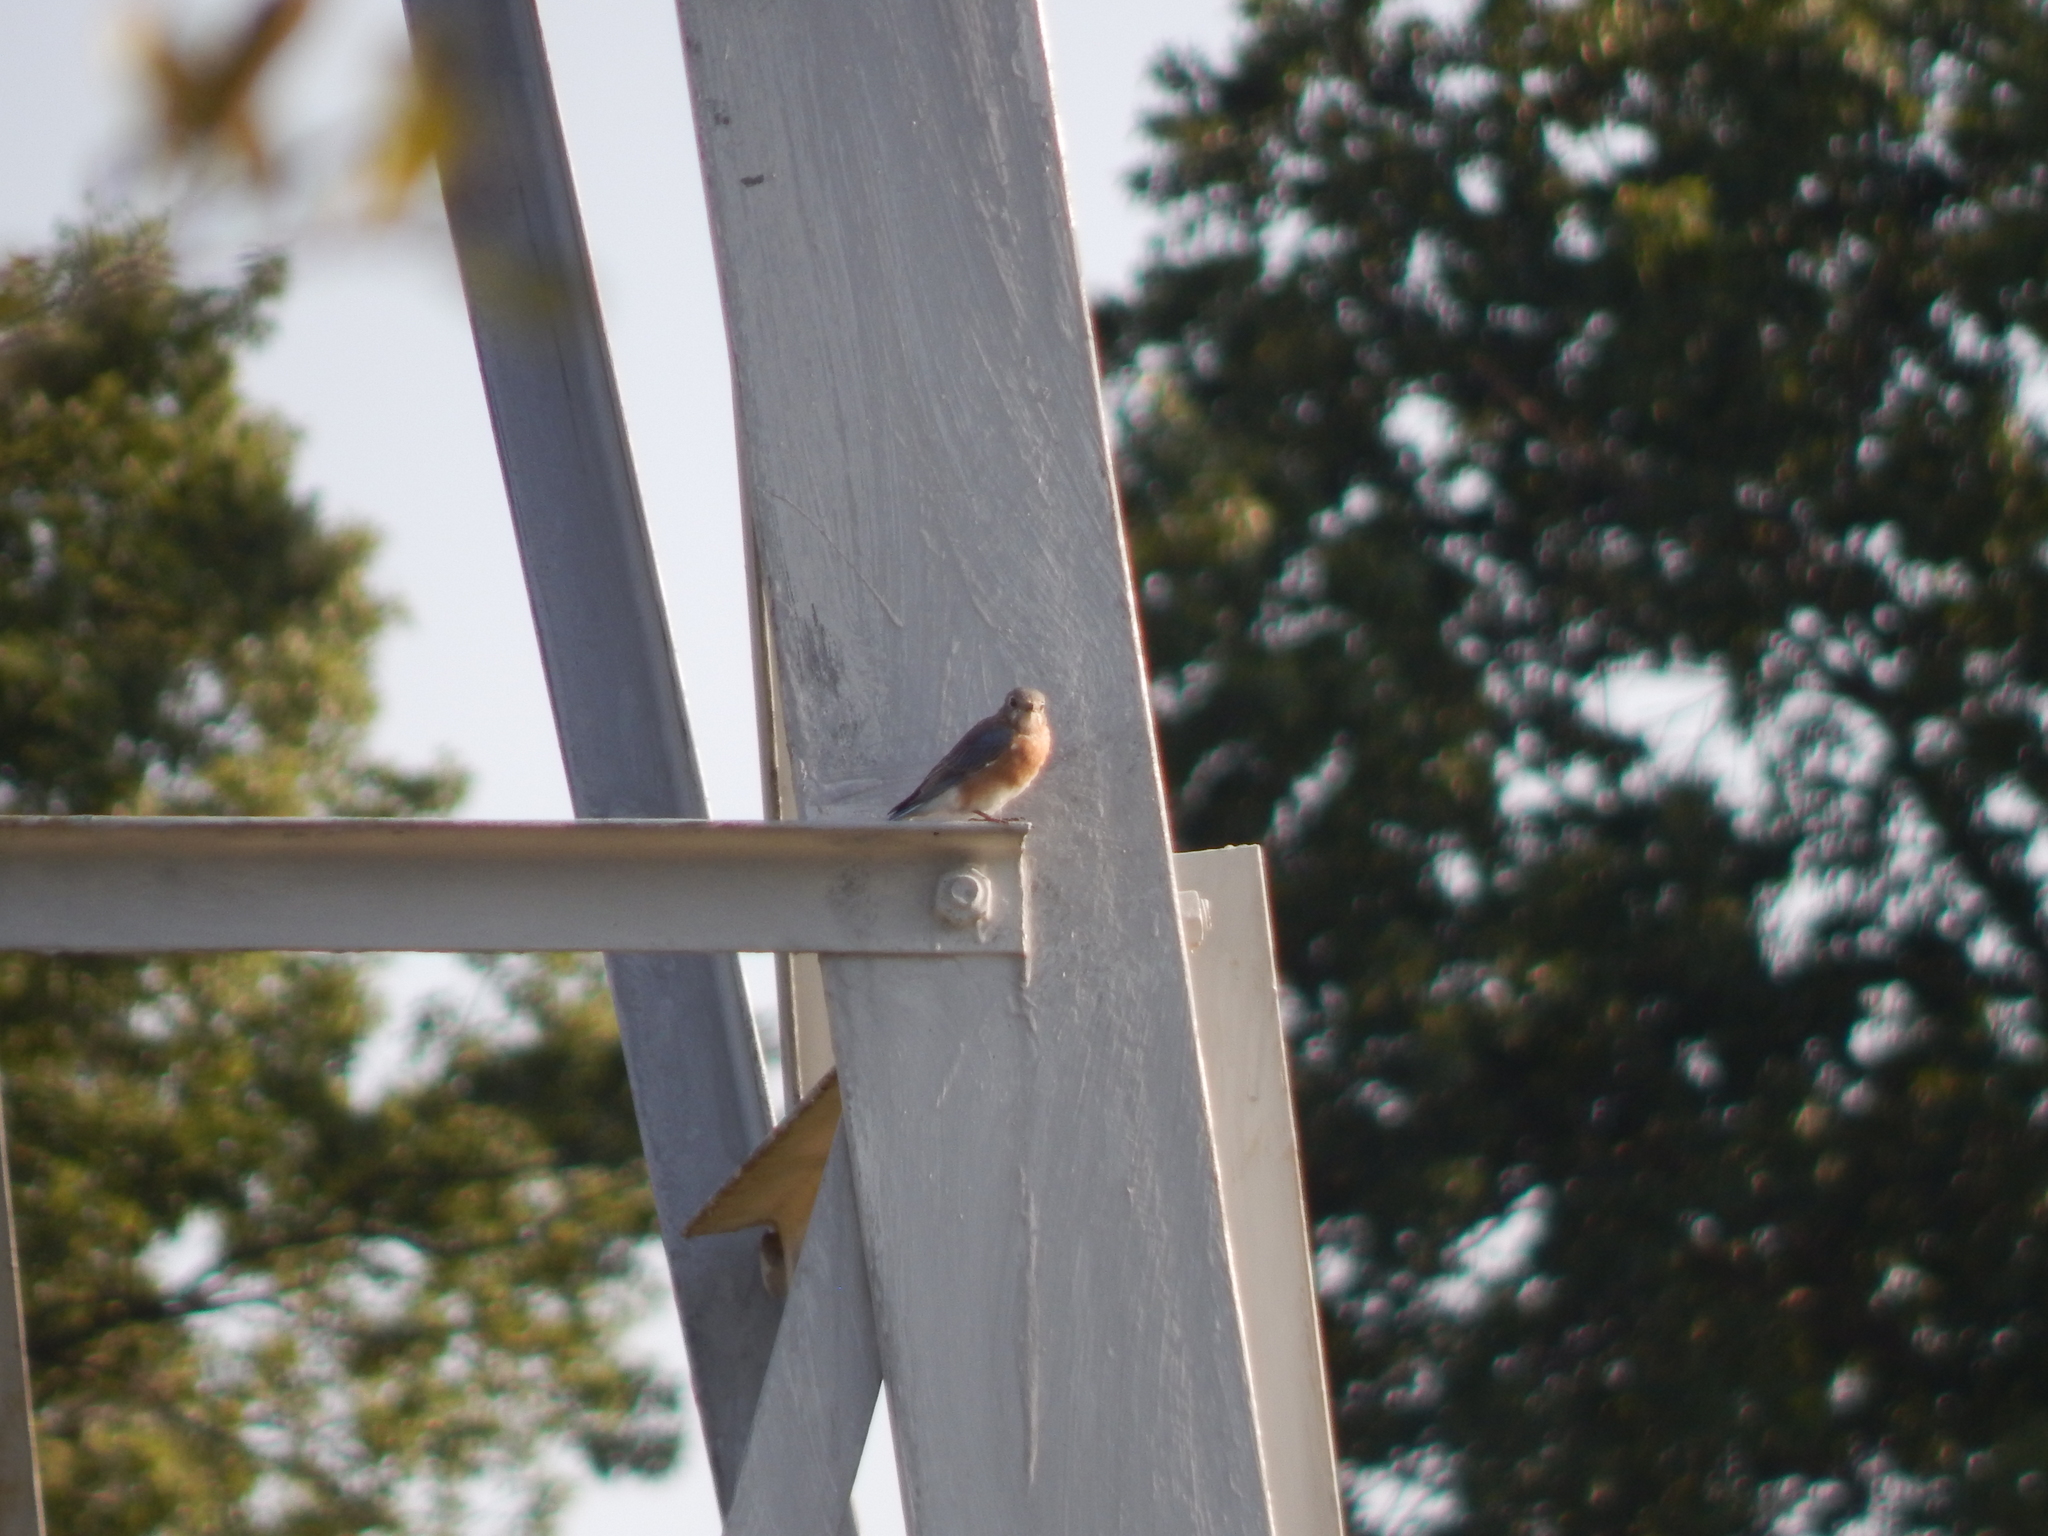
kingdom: Animalia
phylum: Chordata
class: Aves
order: Passeriformes
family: Turdidae
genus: Sialia
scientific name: Sialia sialis
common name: Eastern bluebird
